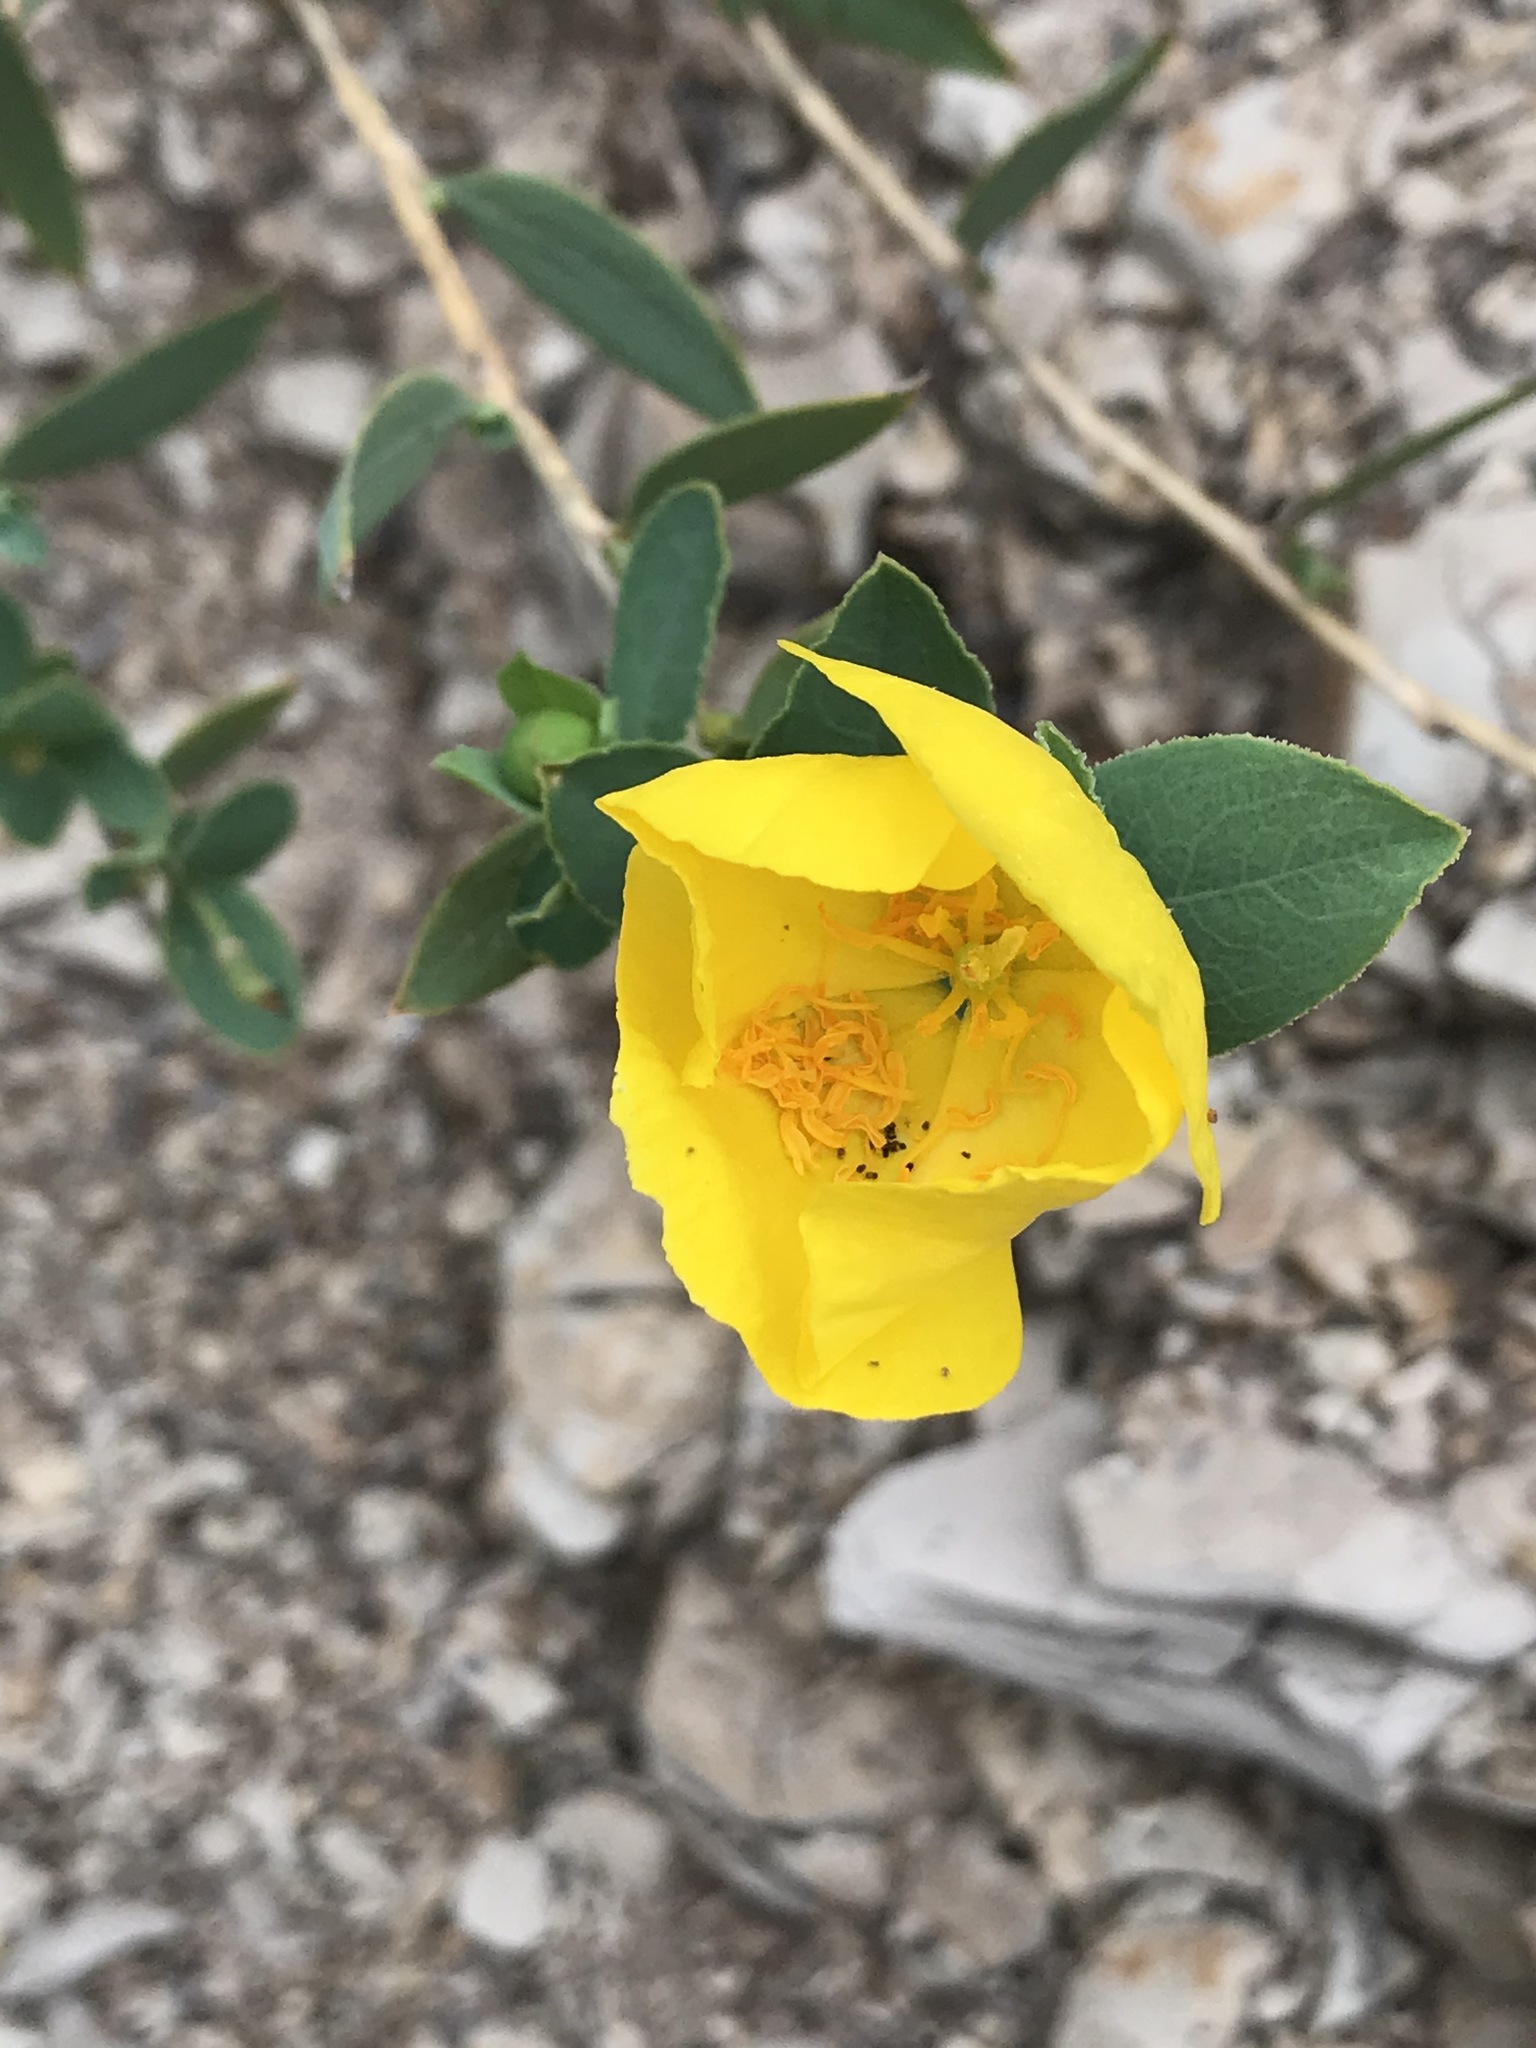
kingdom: Plantae
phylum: Tracheophyta
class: Magnoliopsida
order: Ranunculales
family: Papaveraceae
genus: Dendromecon
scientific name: Dendromecon rigida
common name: Tree poppy
